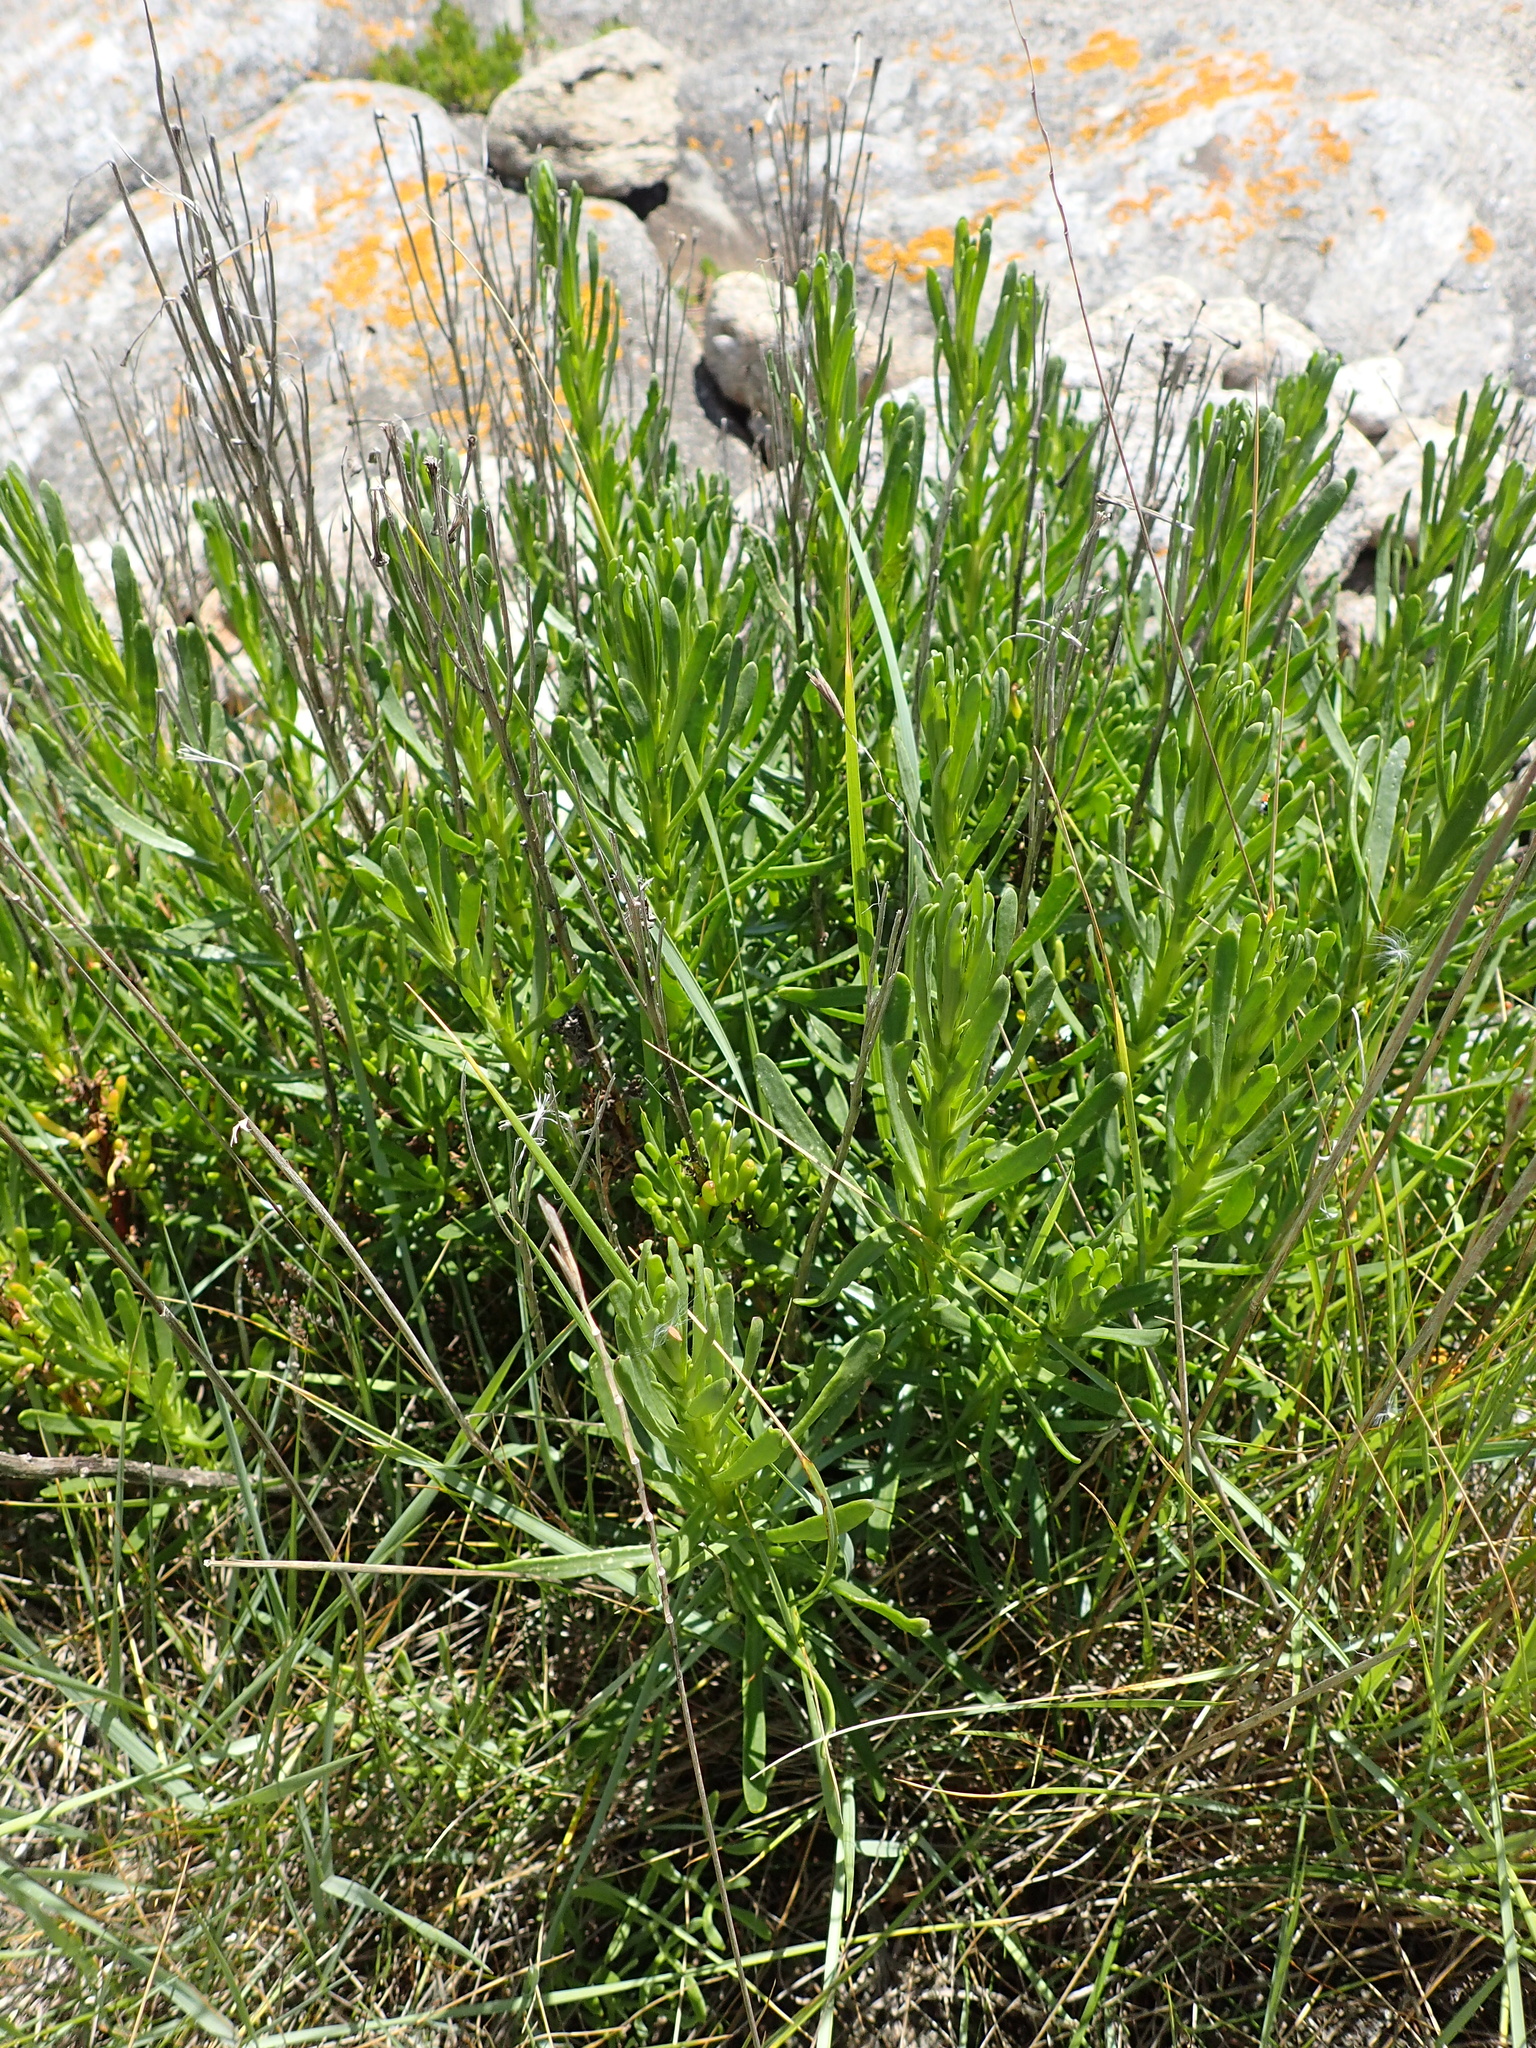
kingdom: Plantae
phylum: Tracheophyta
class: Magnoliopsida
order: Asterales
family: Asteraceae
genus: Limbarda
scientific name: Limbarda crithmoides
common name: Golden samphire
